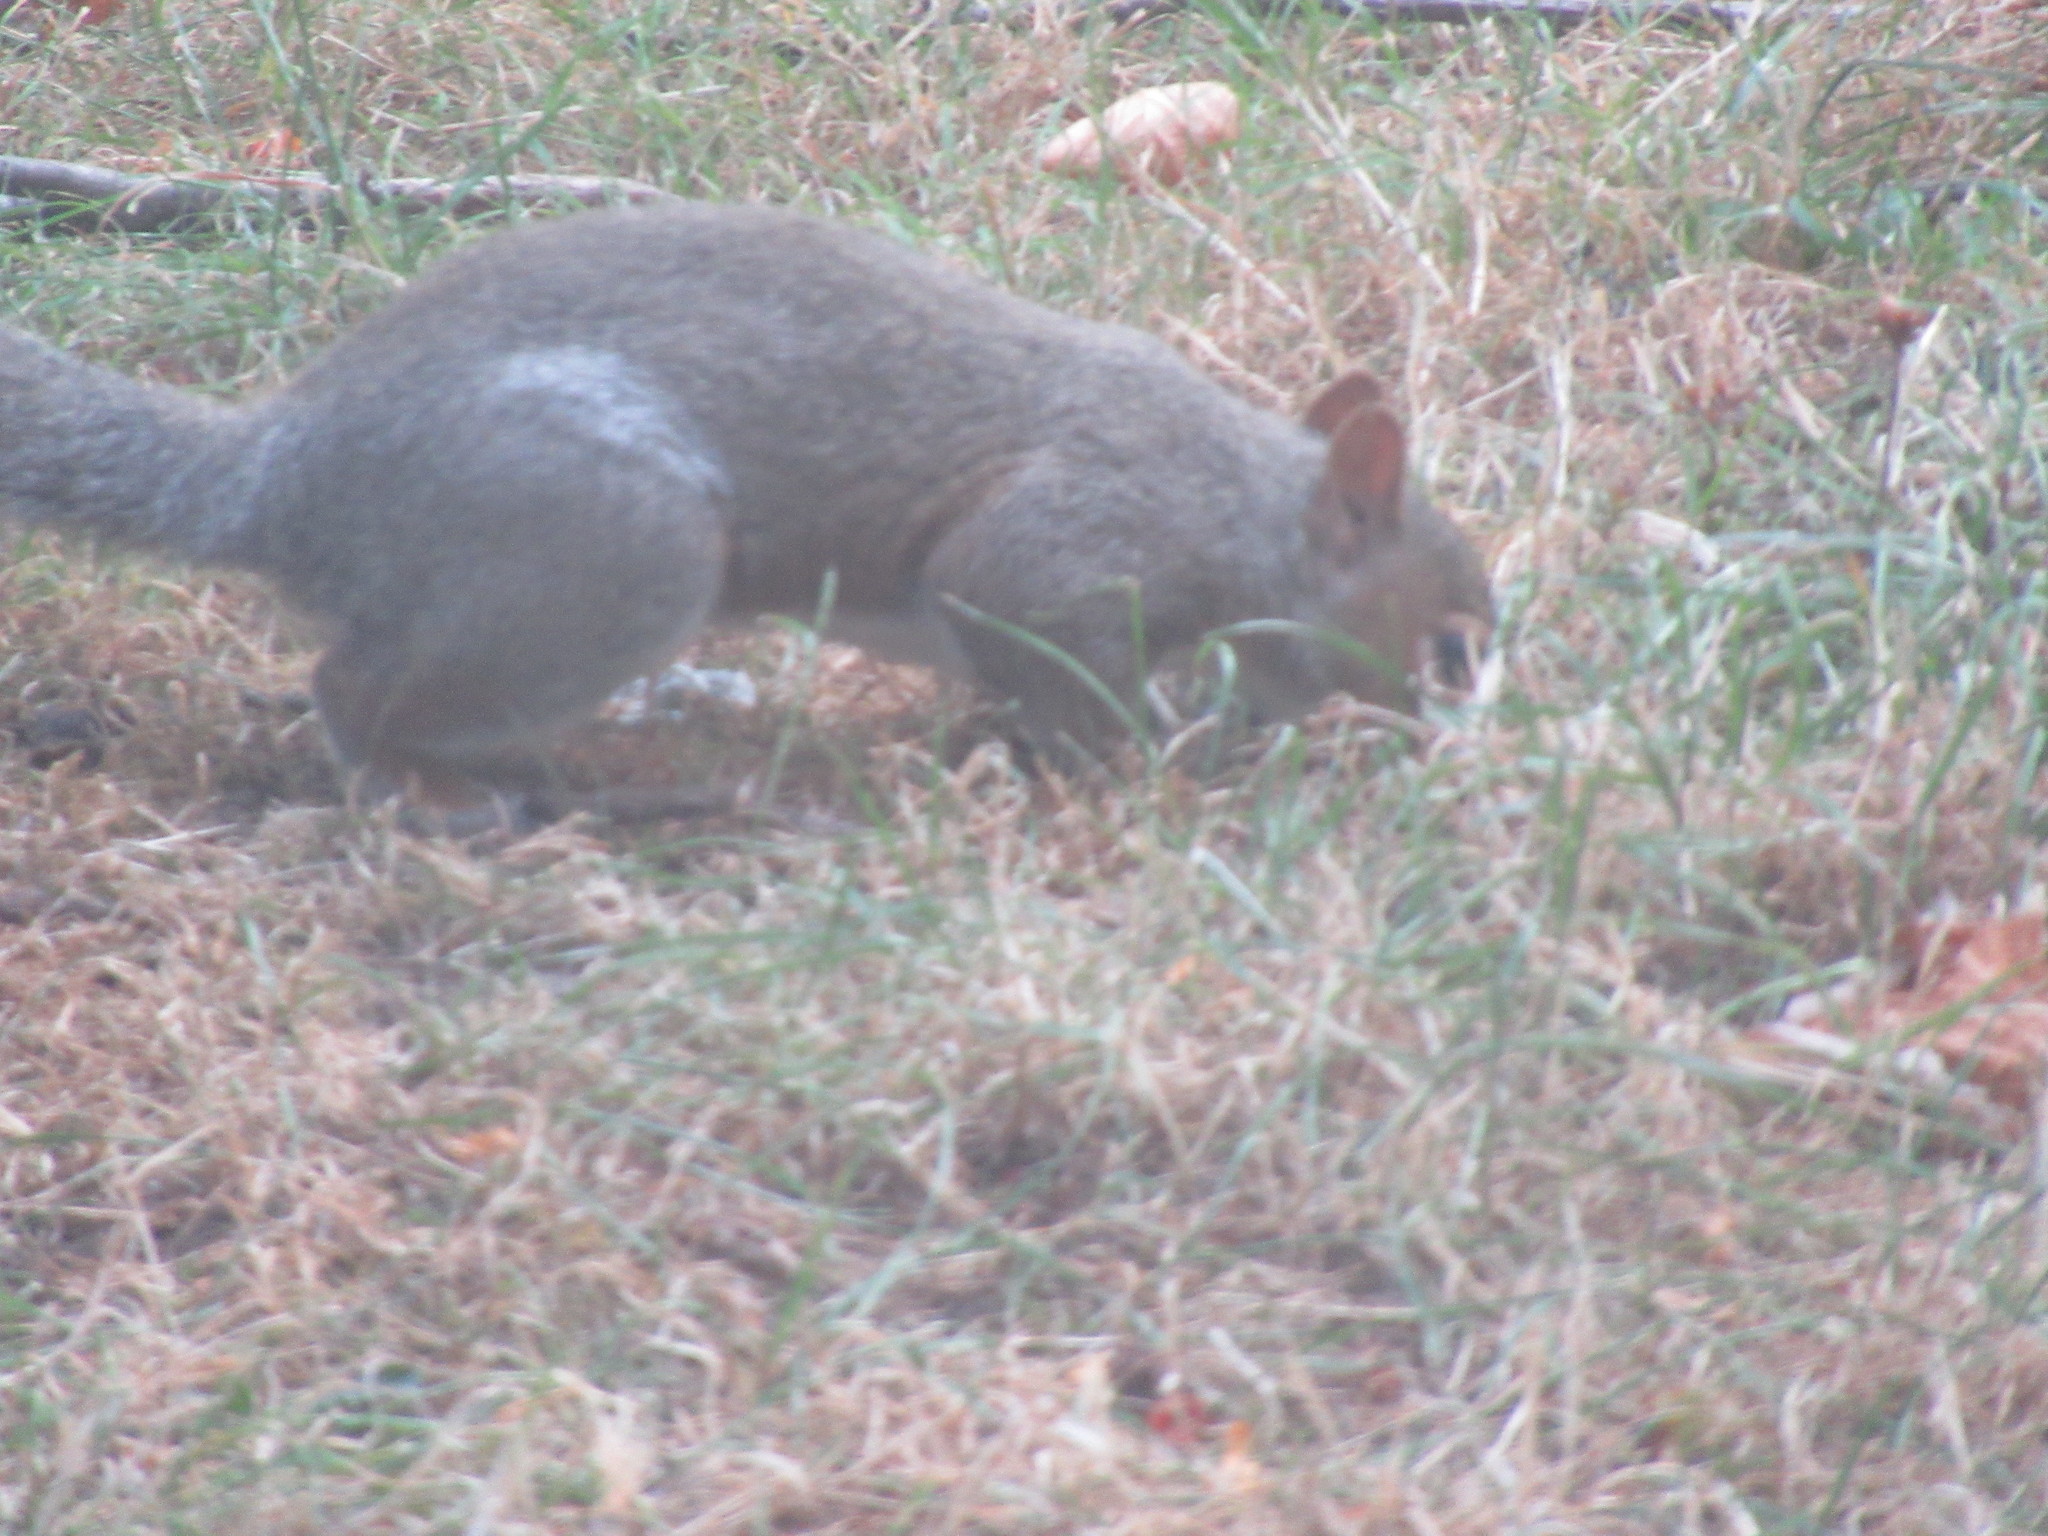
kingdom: Animalia
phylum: Chordata
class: Mammalia
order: Rodentia
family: Sciuridae
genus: Sciurus
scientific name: Sciurus carolinensis
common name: Eastern gray squirrel
